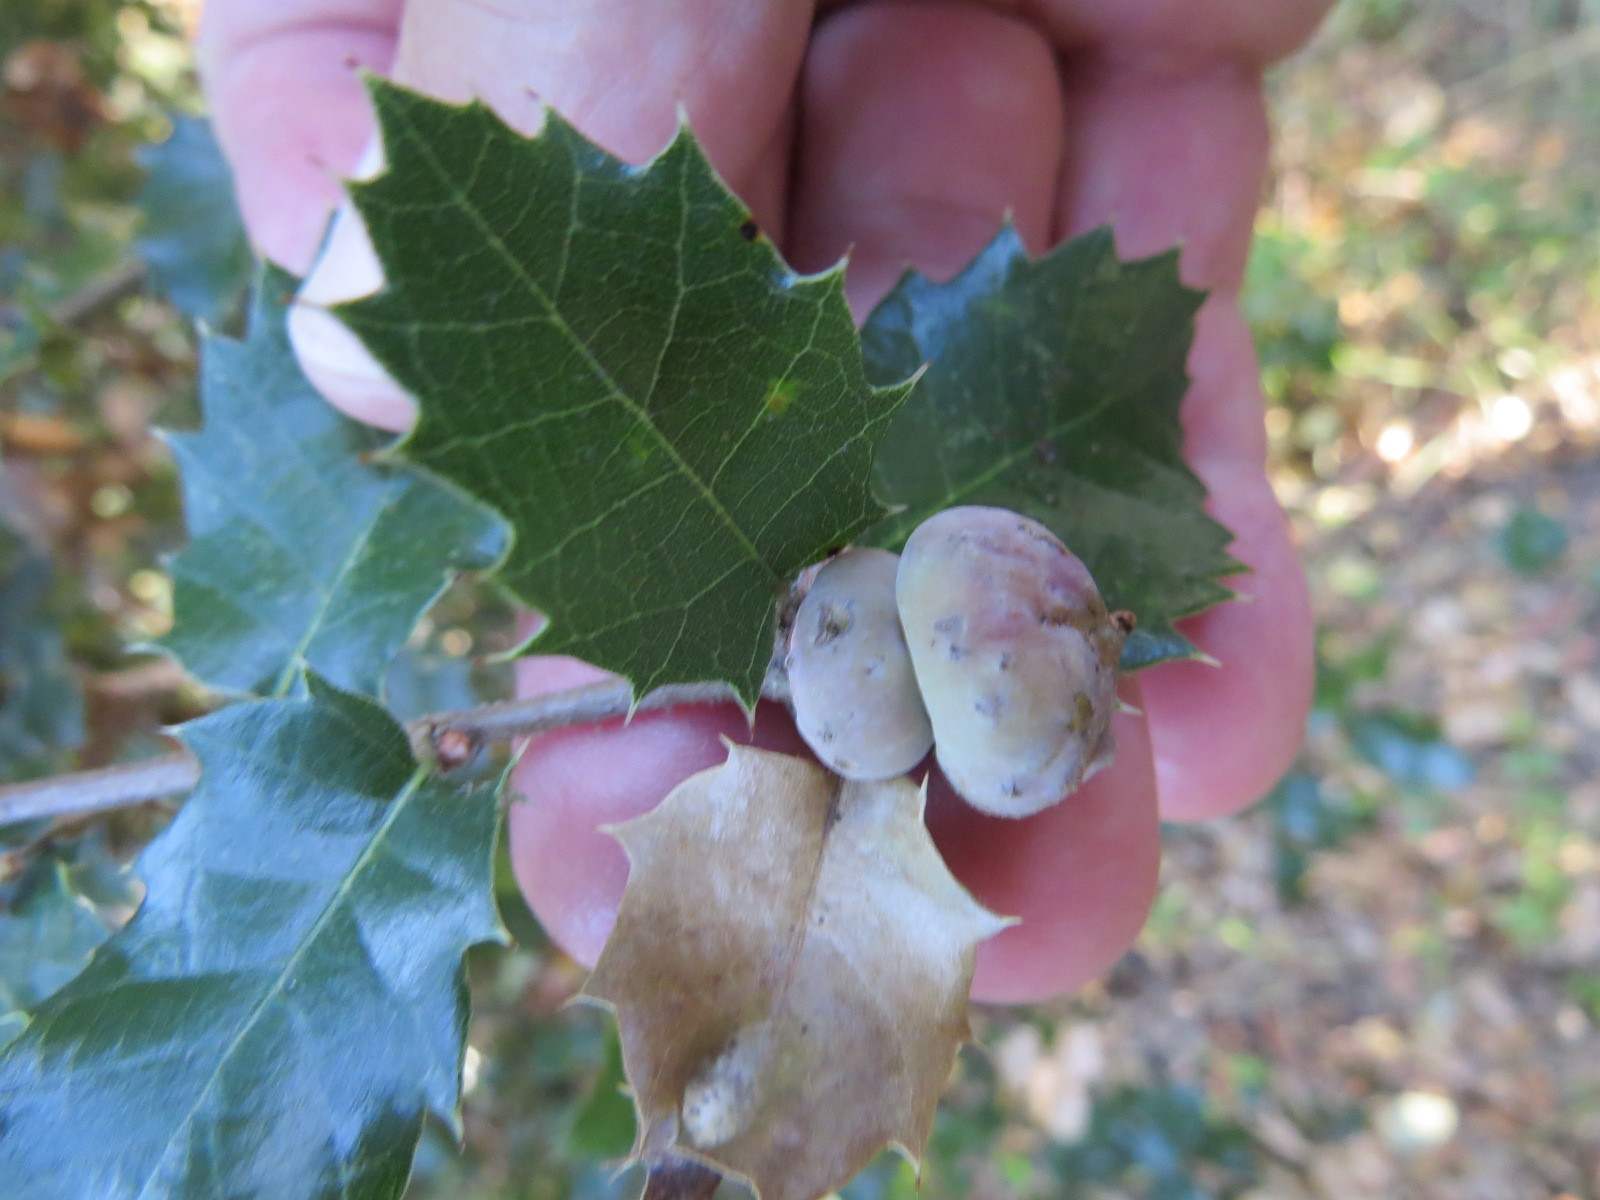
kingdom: Animalia
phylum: Arthropoda
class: Insecta
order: Hymenoptera
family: Cynipidae
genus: Heteroecus
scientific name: Heteroecus
